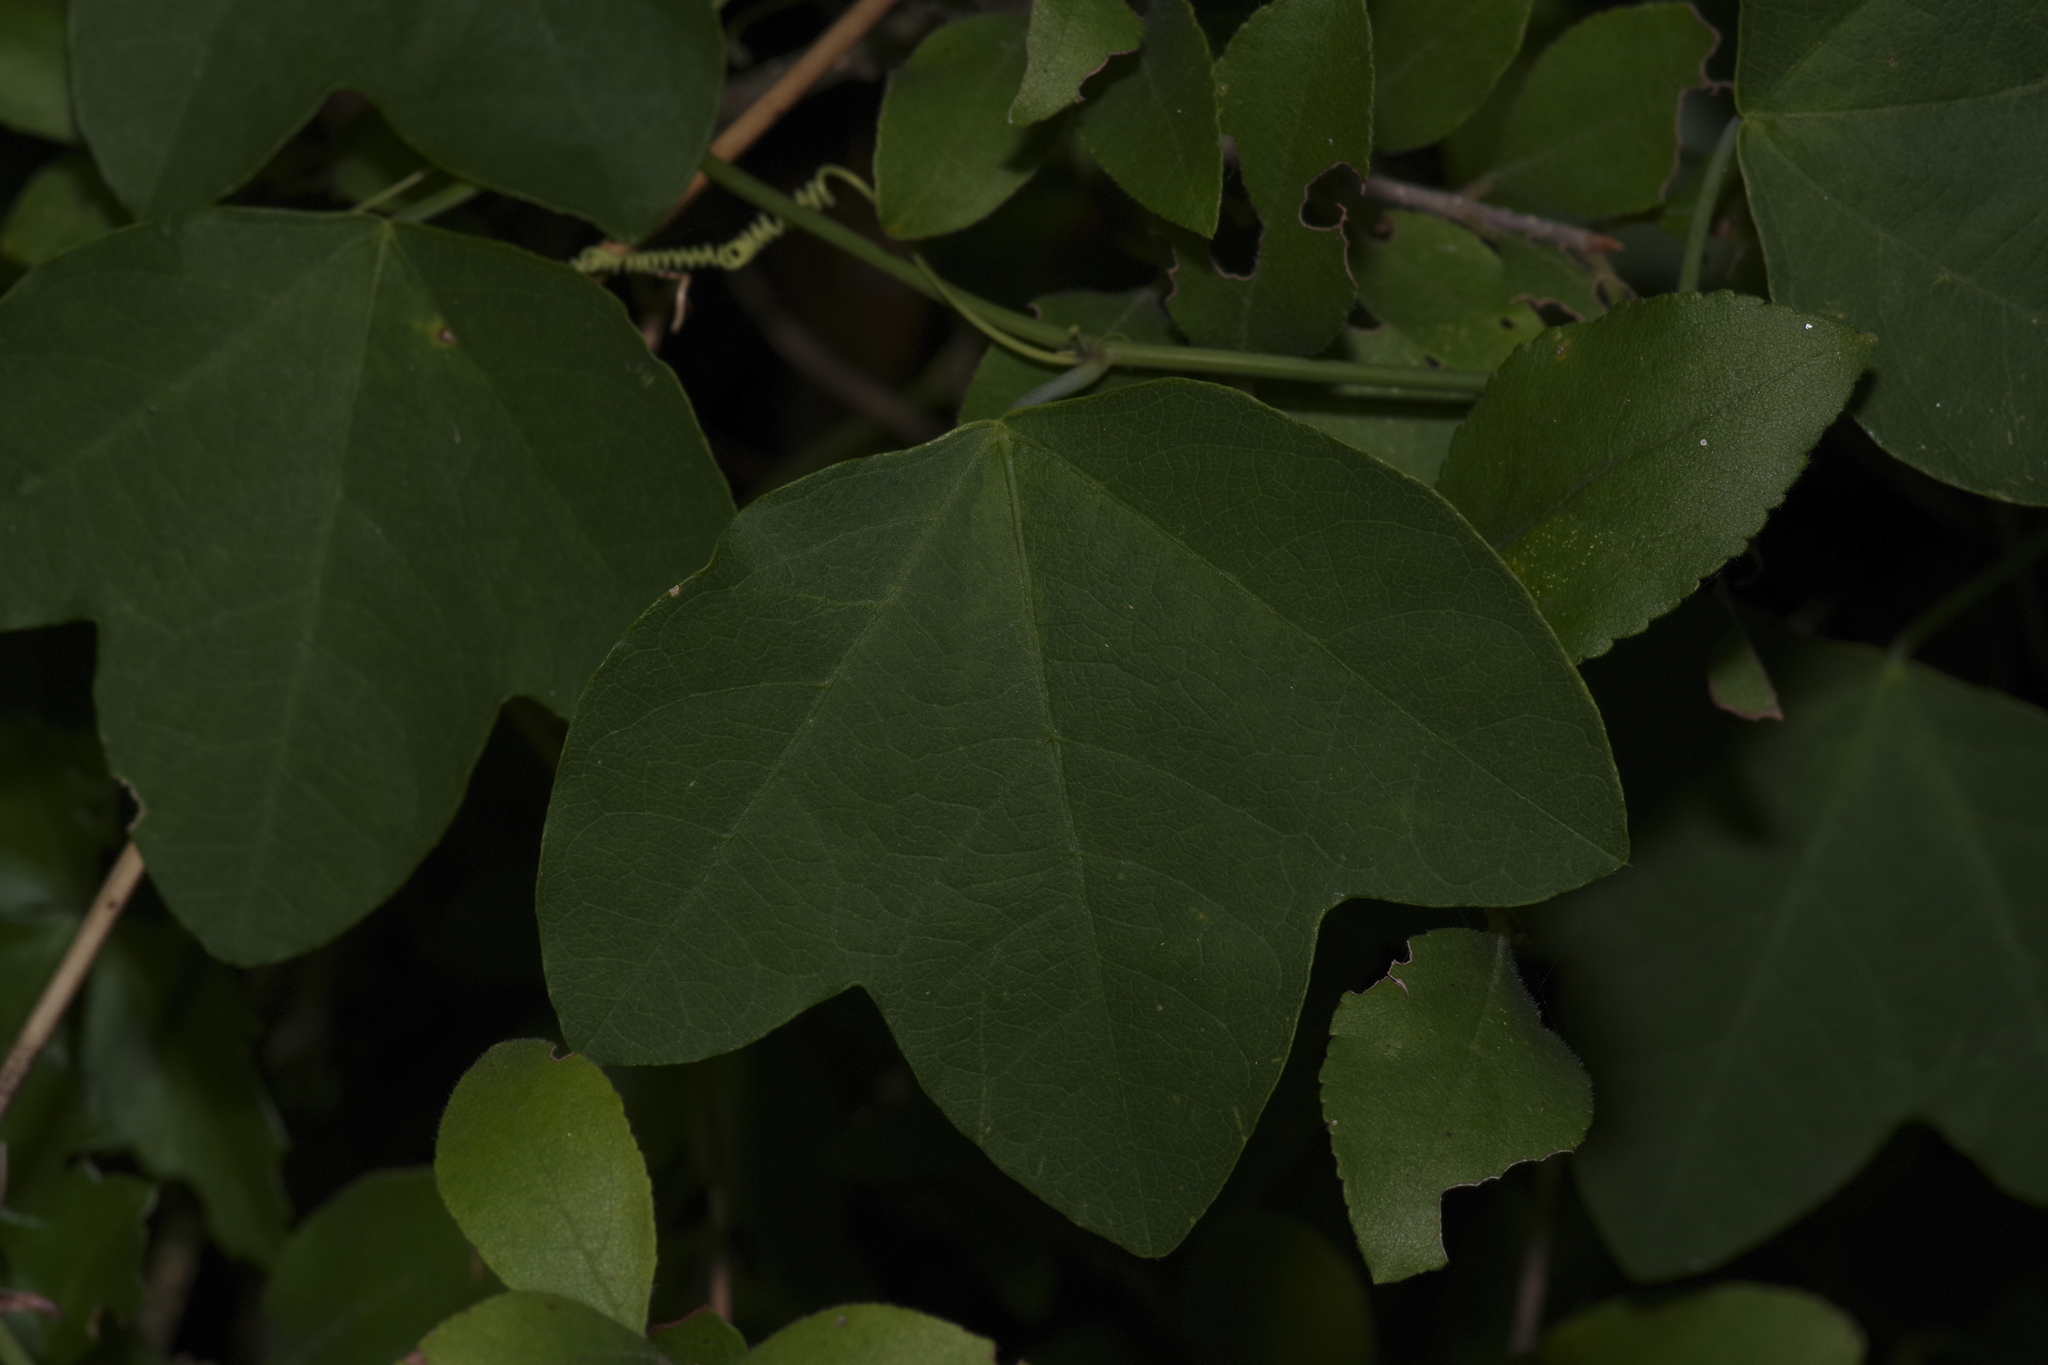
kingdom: Plantae
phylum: Tracheophyta
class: Magnoliopsida
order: Malpighiales
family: Passifloraceae
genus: Passiflora
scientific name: Passiflora lutea
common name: Yellow passionflower
